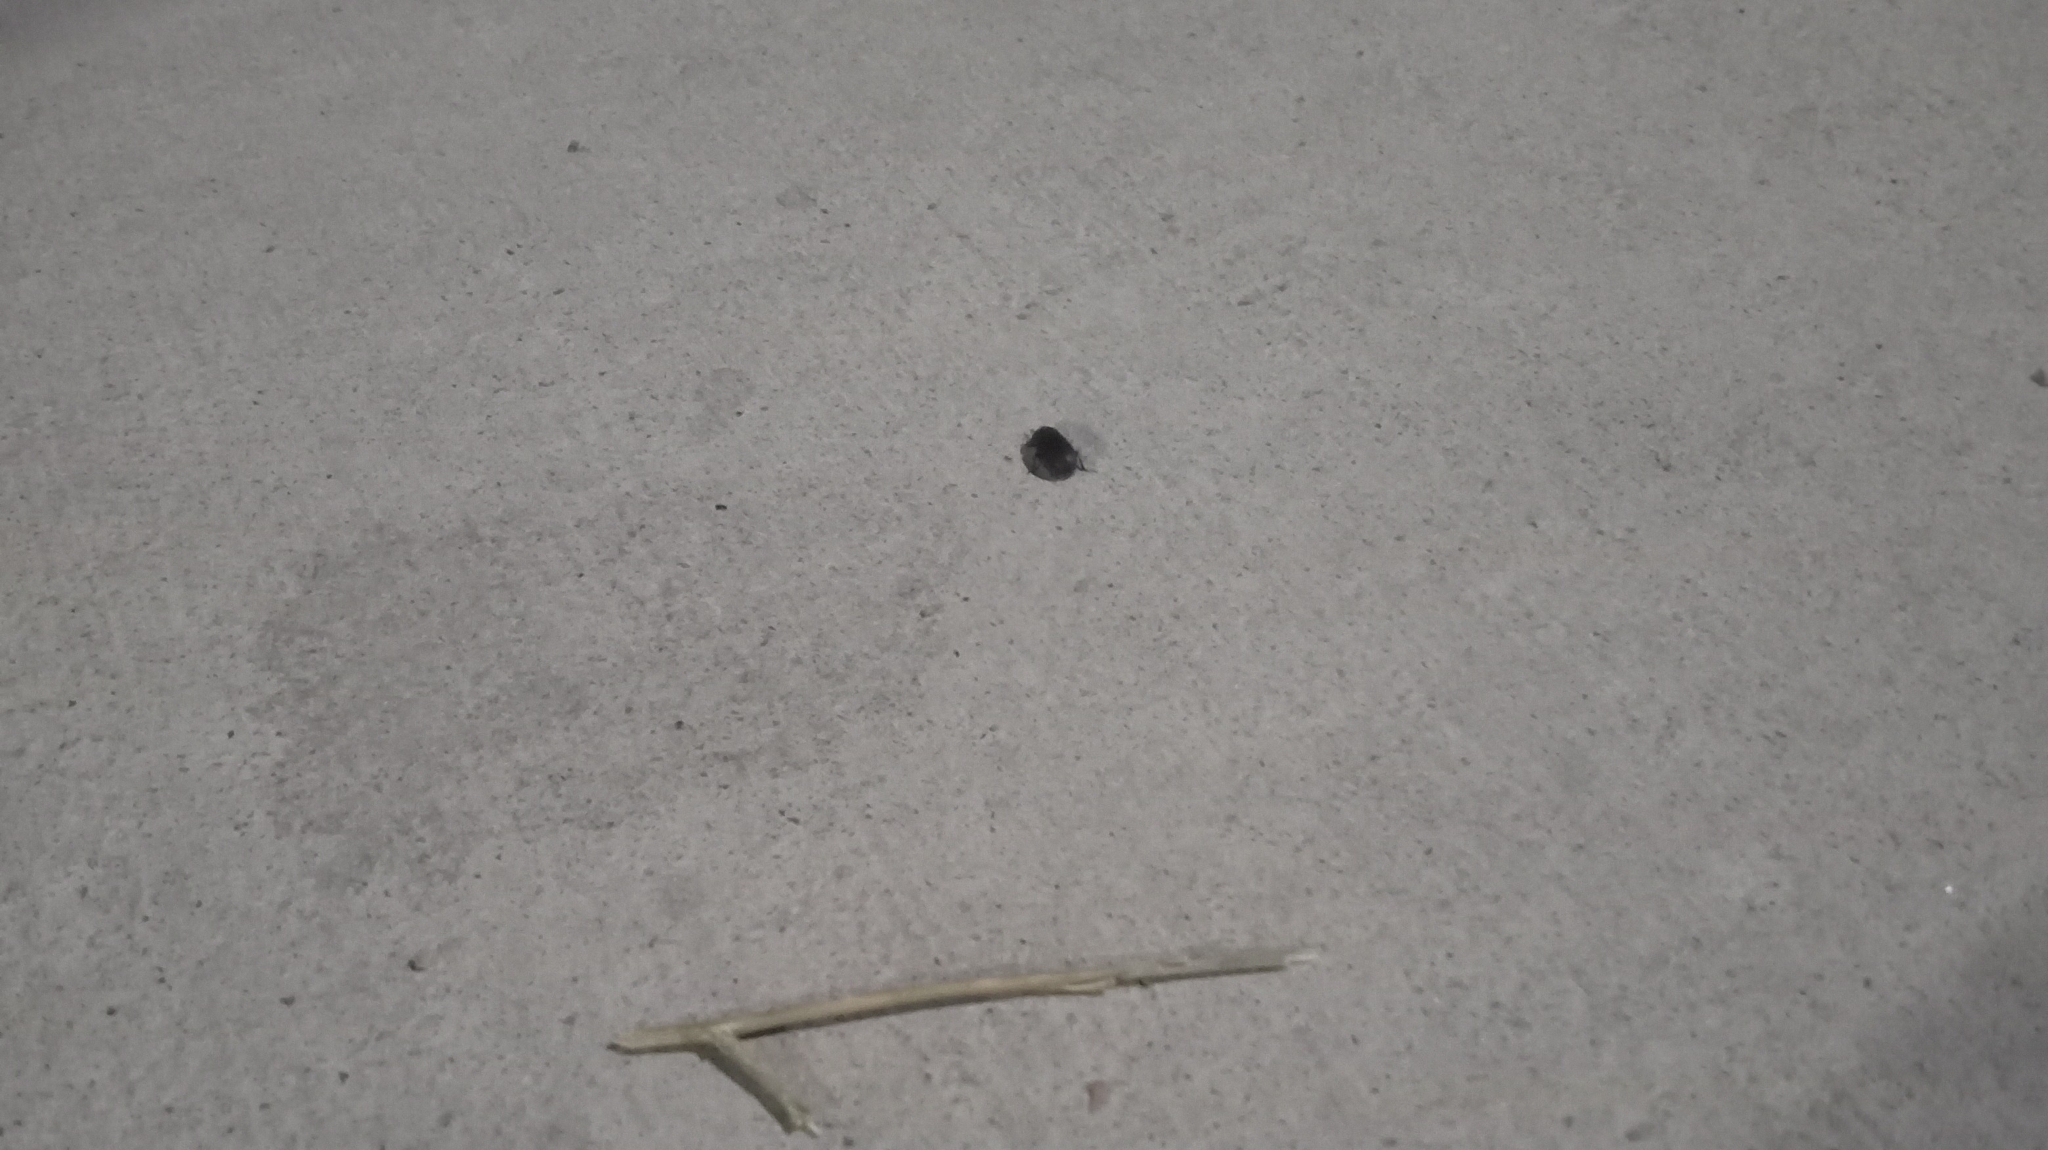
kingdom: Animalia
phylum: Arthropoda
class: Insecta
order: Coleoptera
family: Tenebrionidae
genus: Coniontis
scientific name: Coniontis
